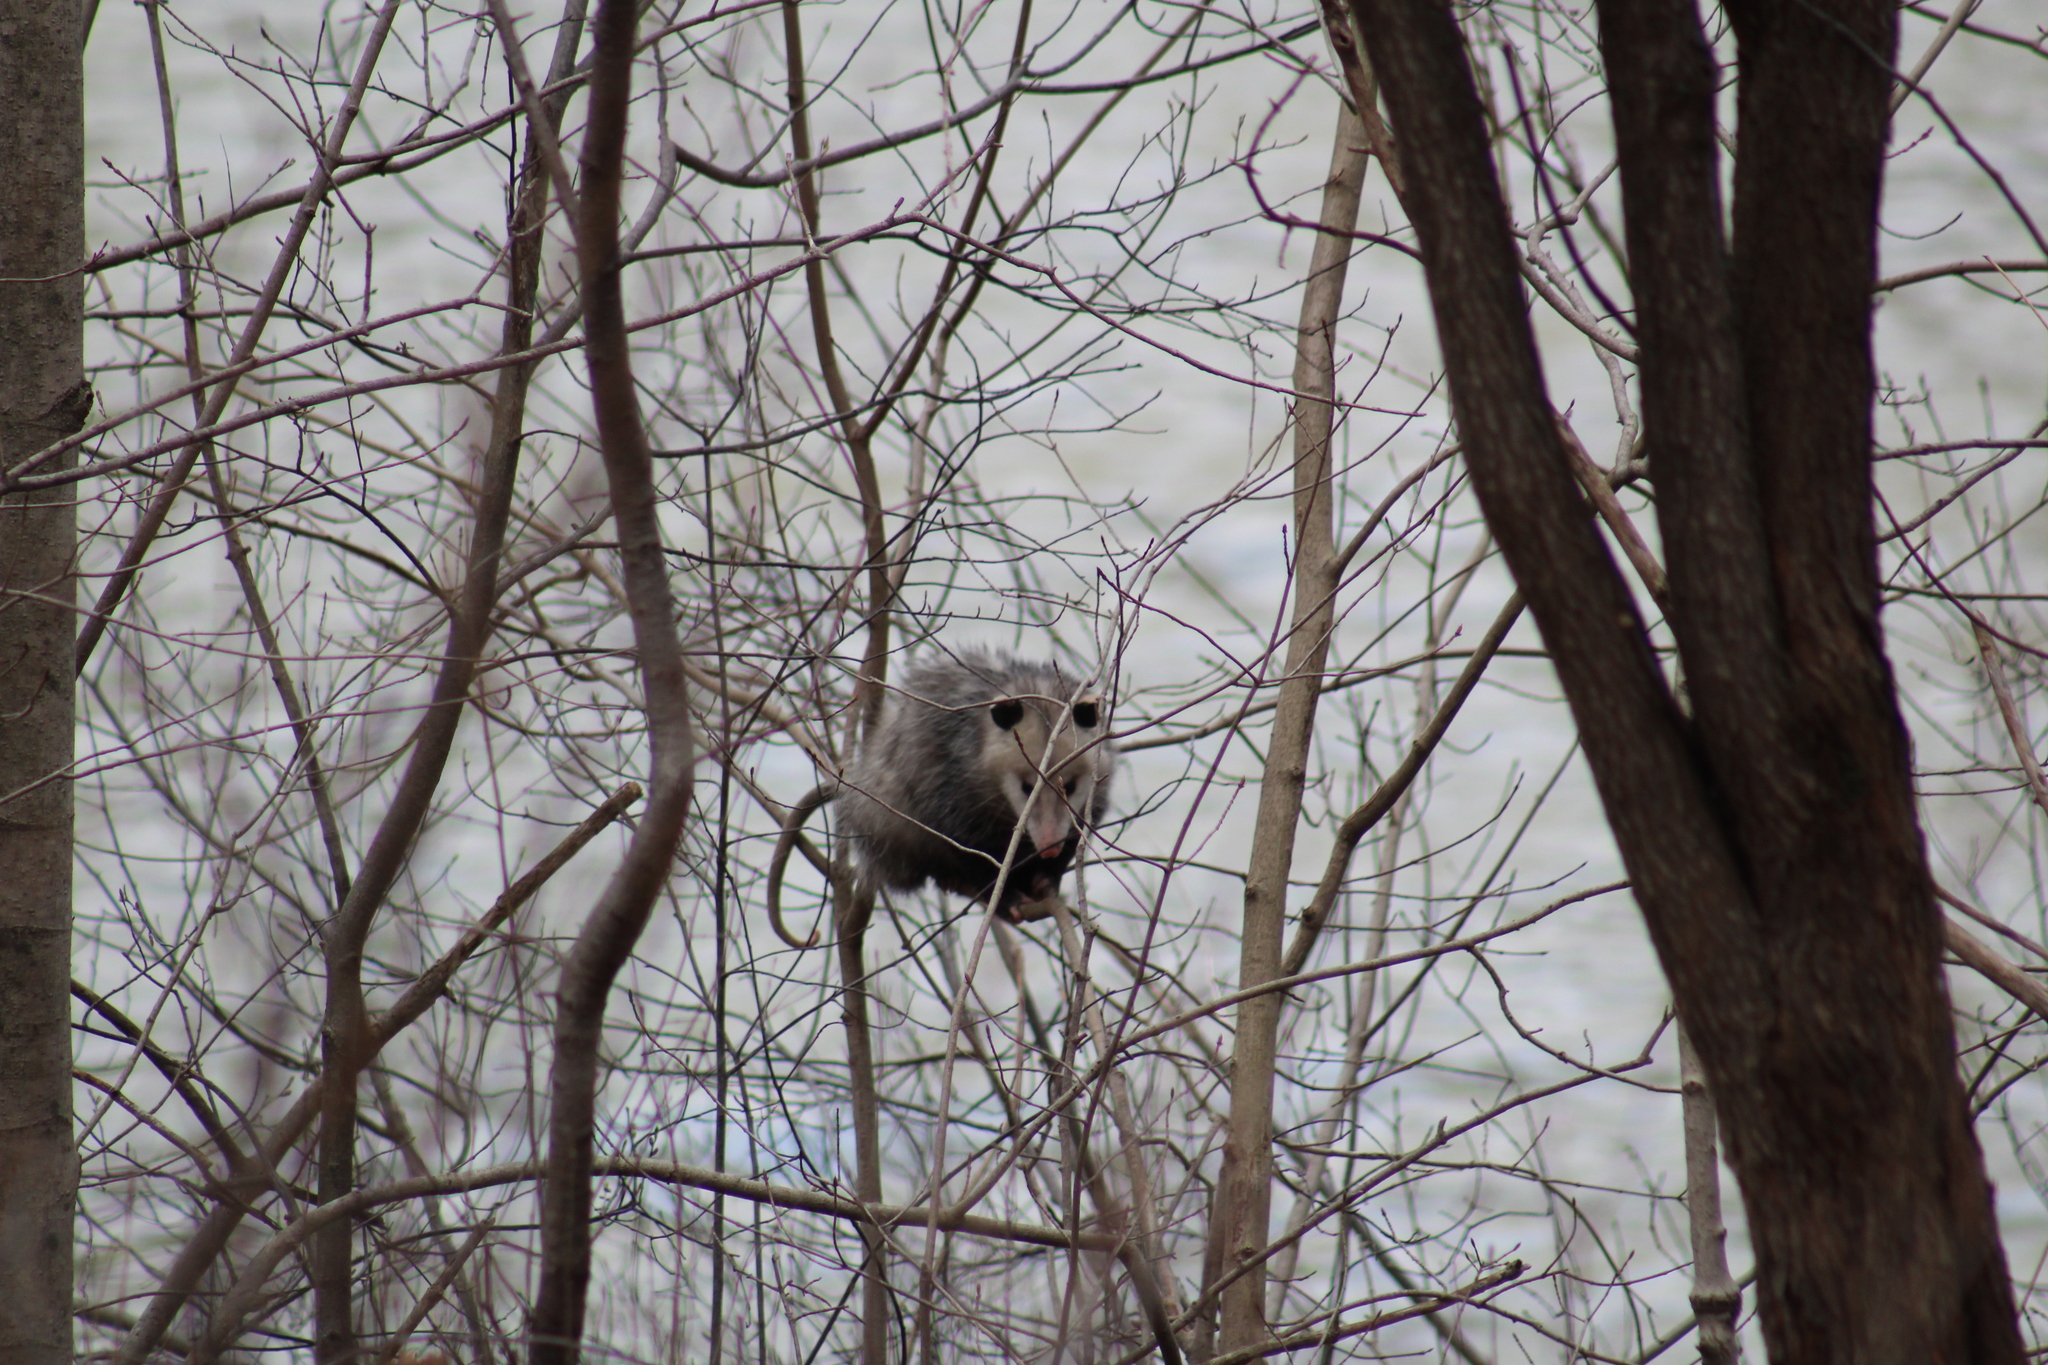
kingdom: Animalia
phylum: Chordata
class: Mammalia
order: Didelphimorphia
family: Didelphidae
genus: Didelphis
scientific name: Didelphis virginiana
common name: Virginia opossum
